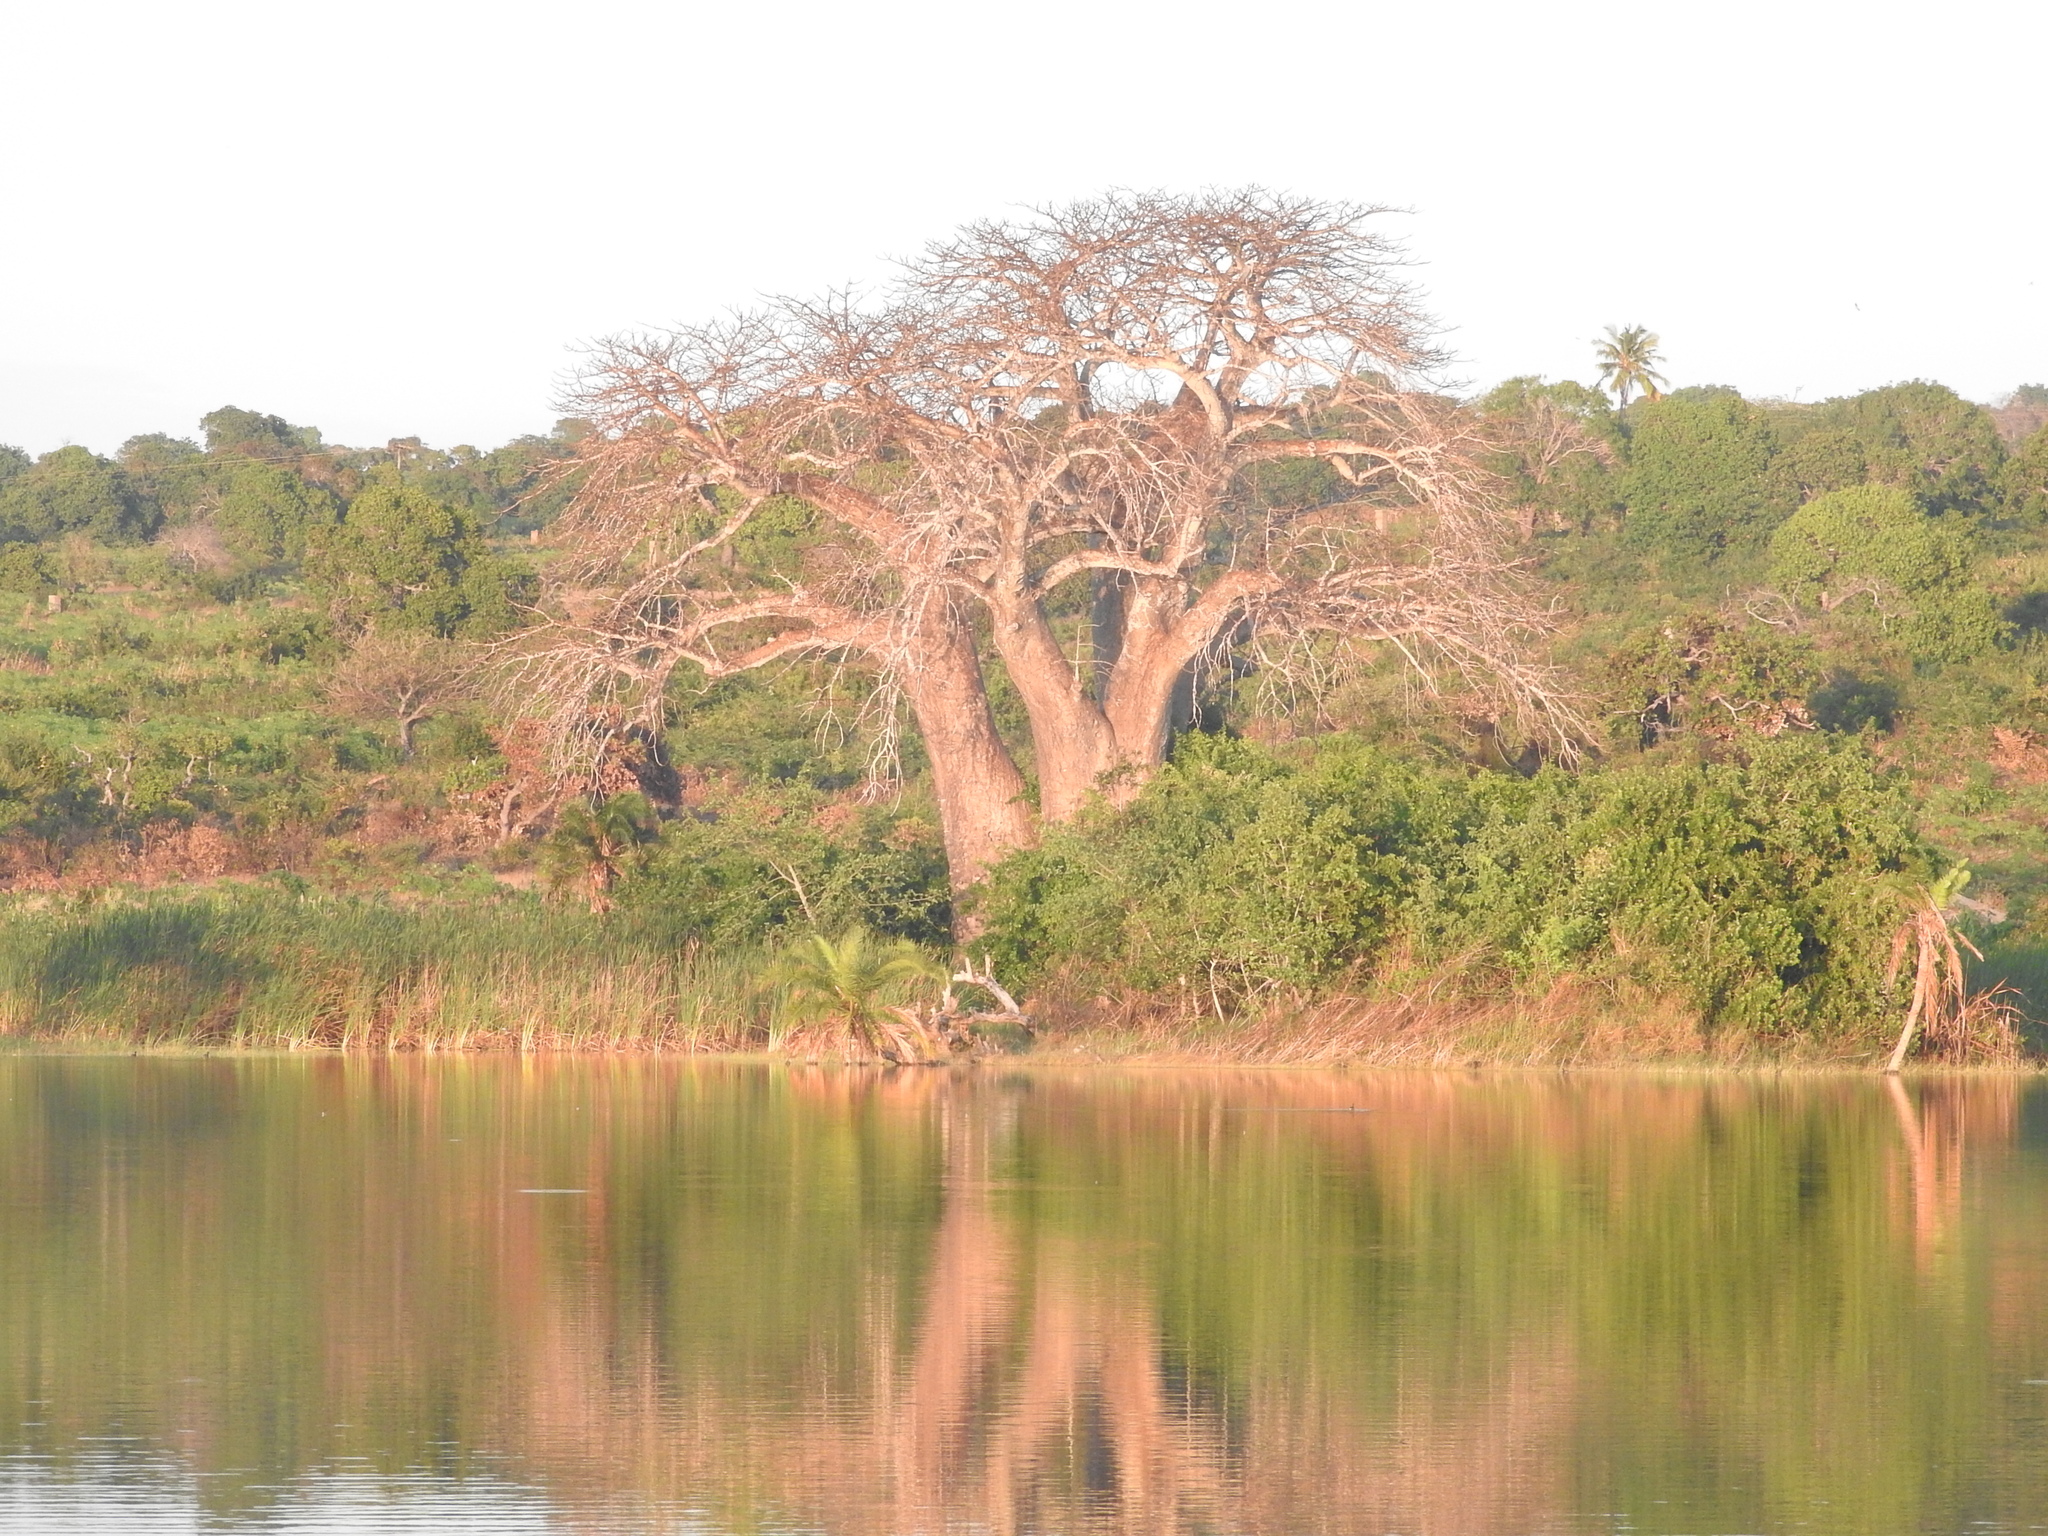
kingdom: Plantae
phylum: Tracheophyta
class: Magnoliopsida
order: Malvales
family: Malvaceae
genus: Adansonia
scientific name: Adansonia digitata
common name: Dead-rat-tree
